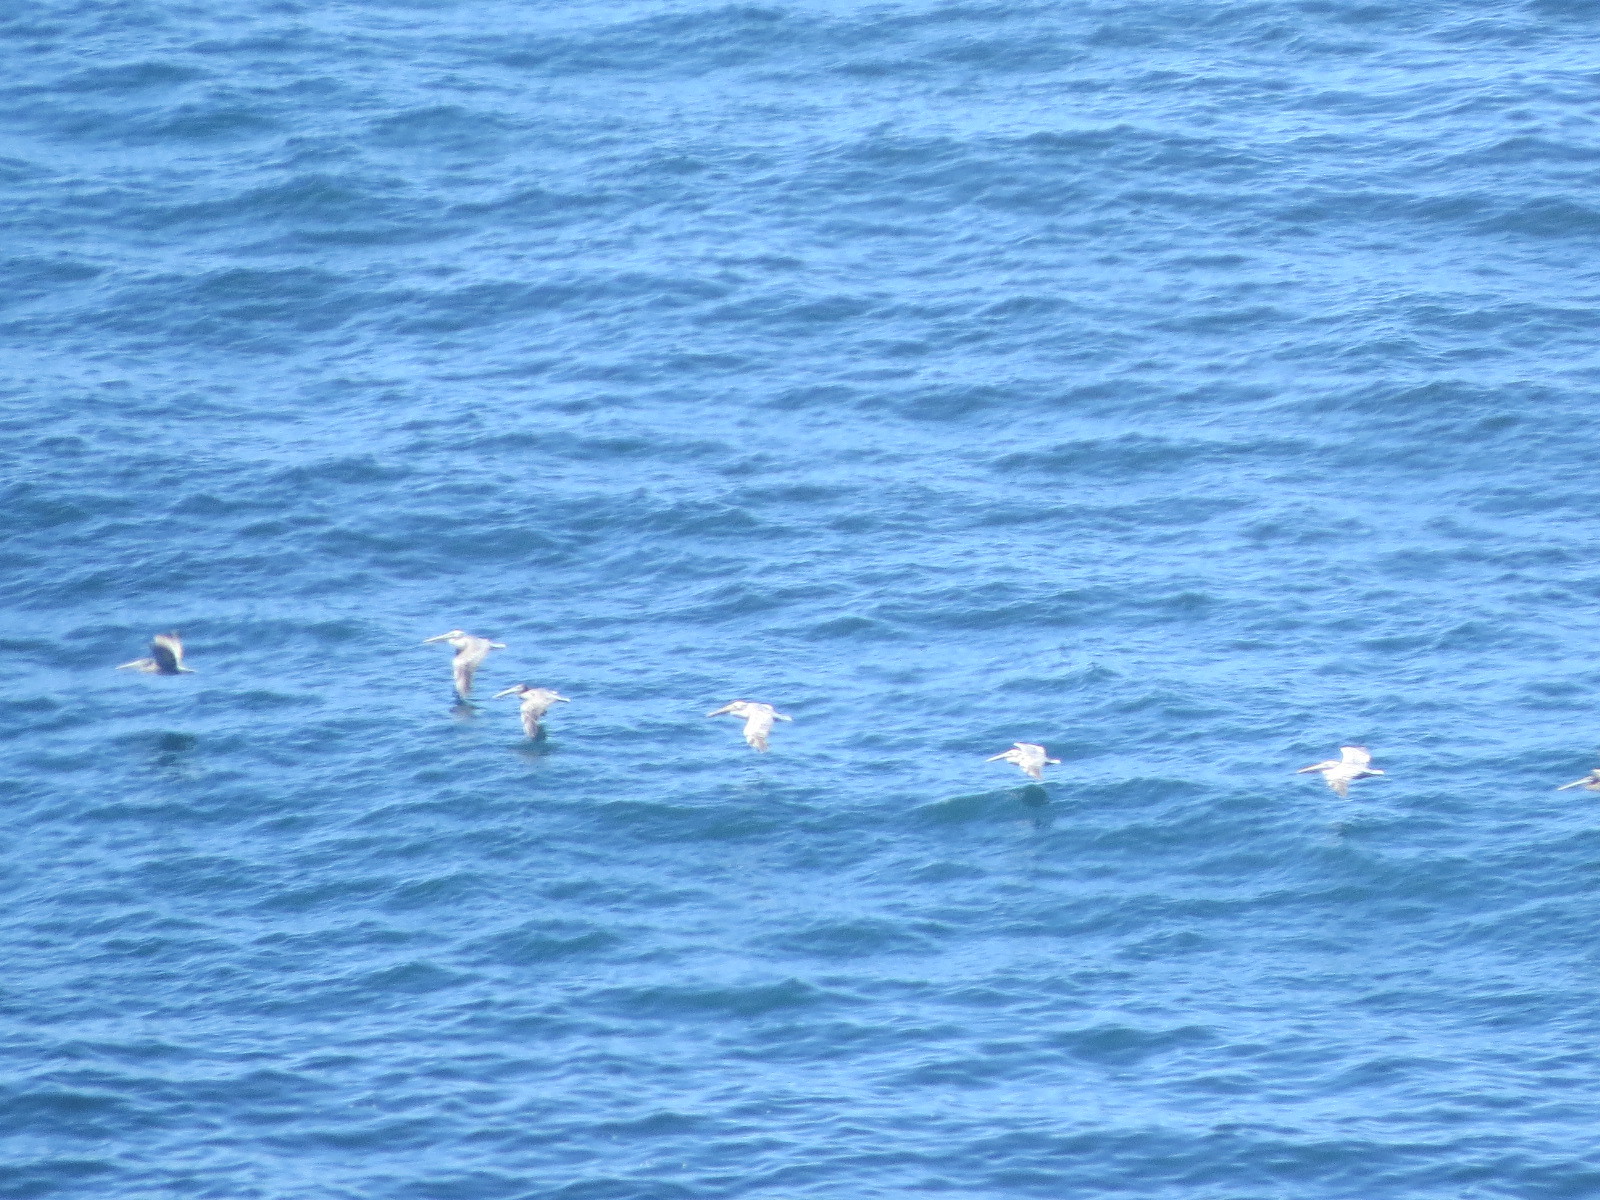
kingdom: Animalia
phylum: Chordata
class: Aves
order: Pelecaniformes
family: Pelecanidae
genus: Pelecanus
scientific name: Pelecanus occidentalis
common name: Brown pelican
